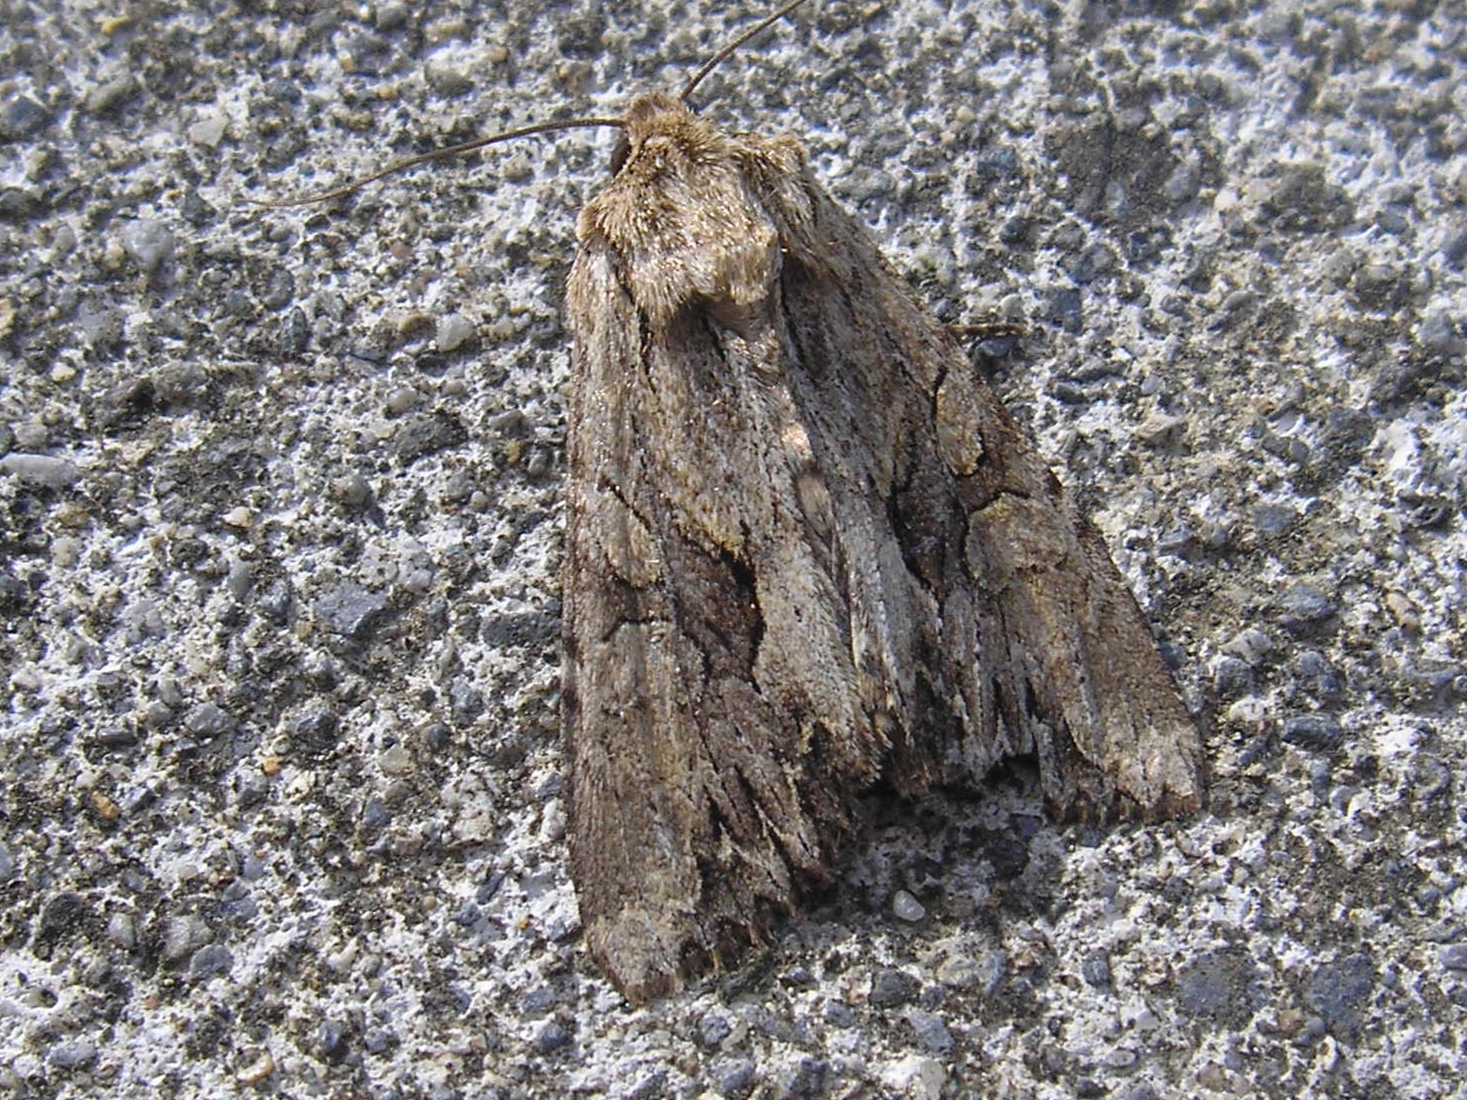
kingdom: Animalia
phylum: Arthropoda
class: Insecta
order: Lepidoptera
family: Noctuidae
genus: Apamea
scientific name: Apamea monoglypha
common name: Dark arches
